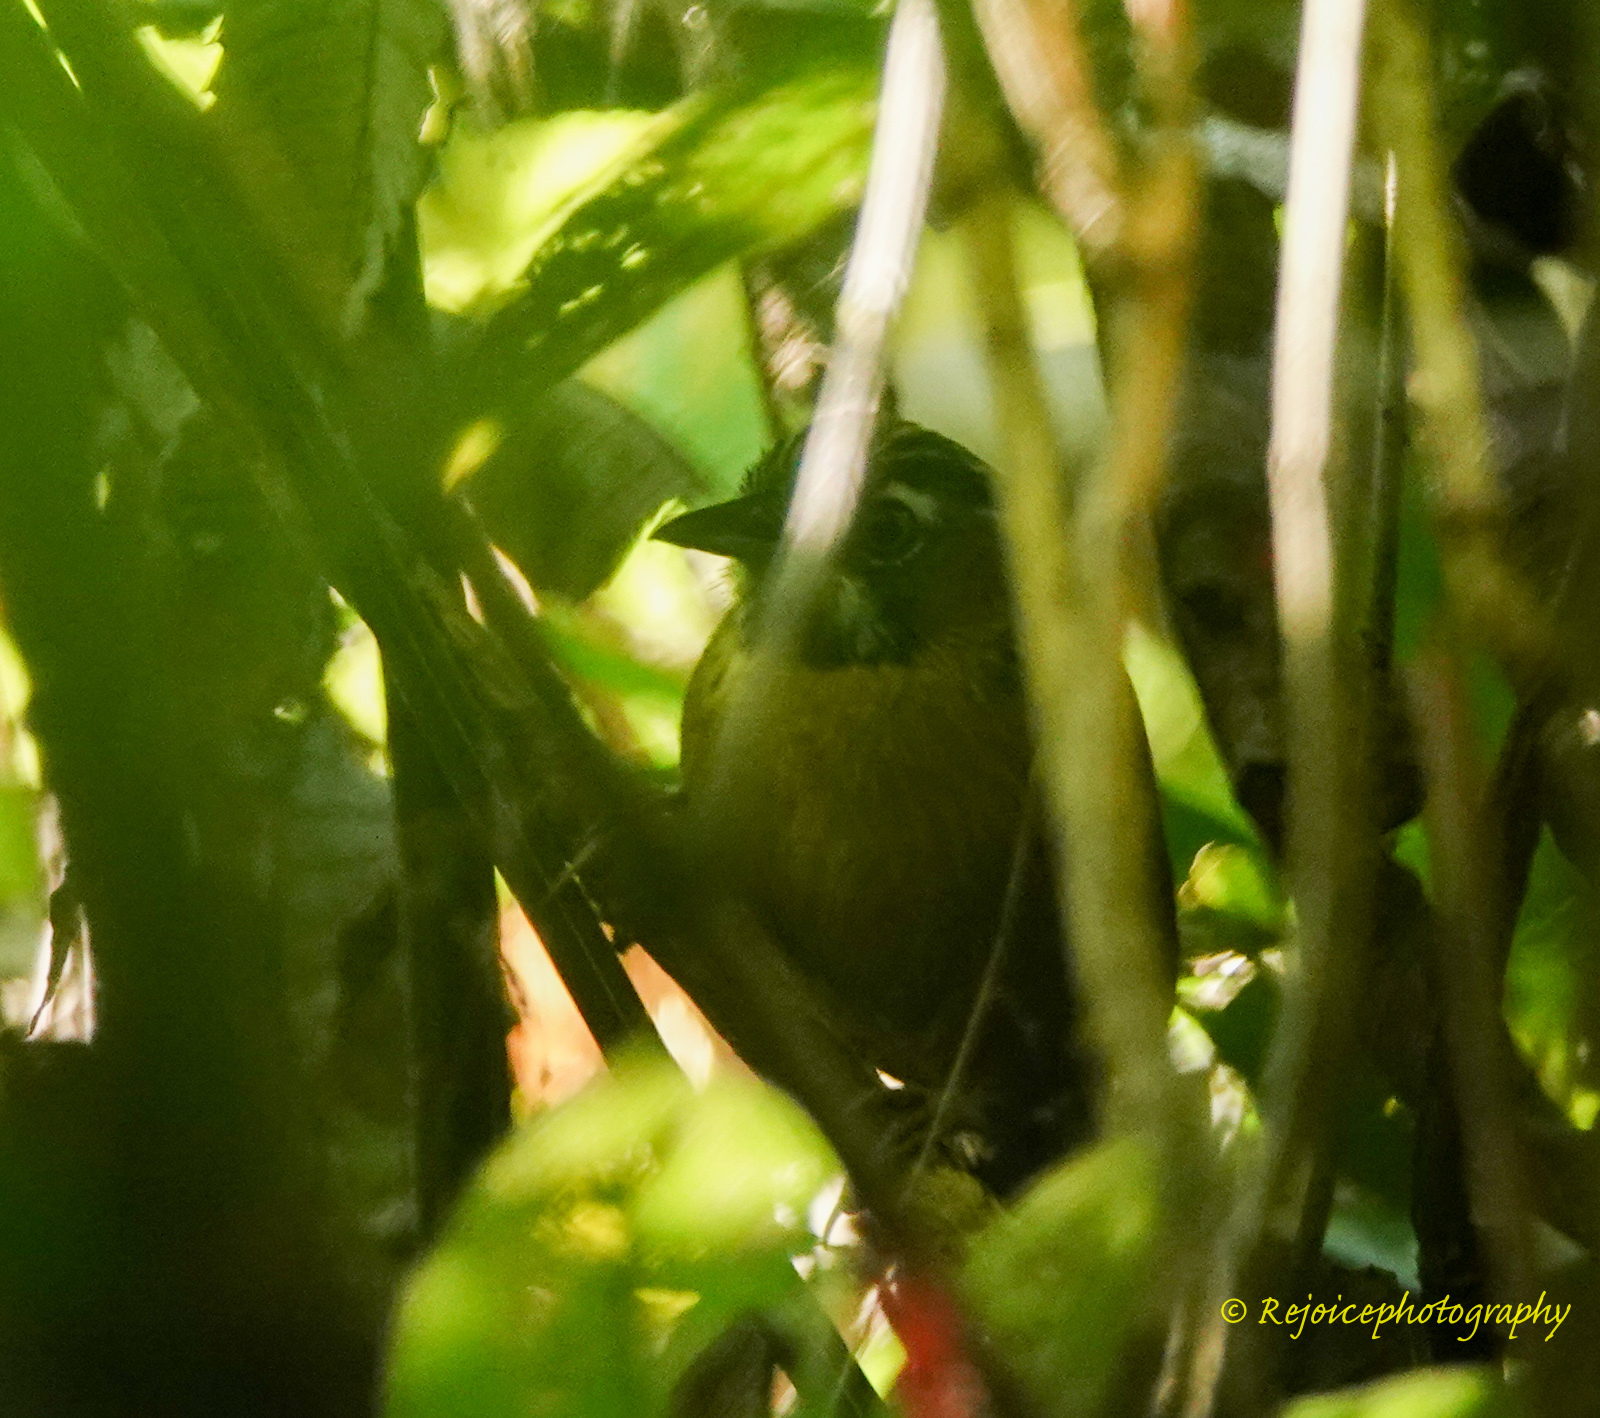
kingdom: Animalia
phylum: Chordata
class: Aves
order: Passeriformes
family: Timaliidae
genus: Stachyris
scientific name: Stachyris nigriceps
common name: Grey-throated babbler
